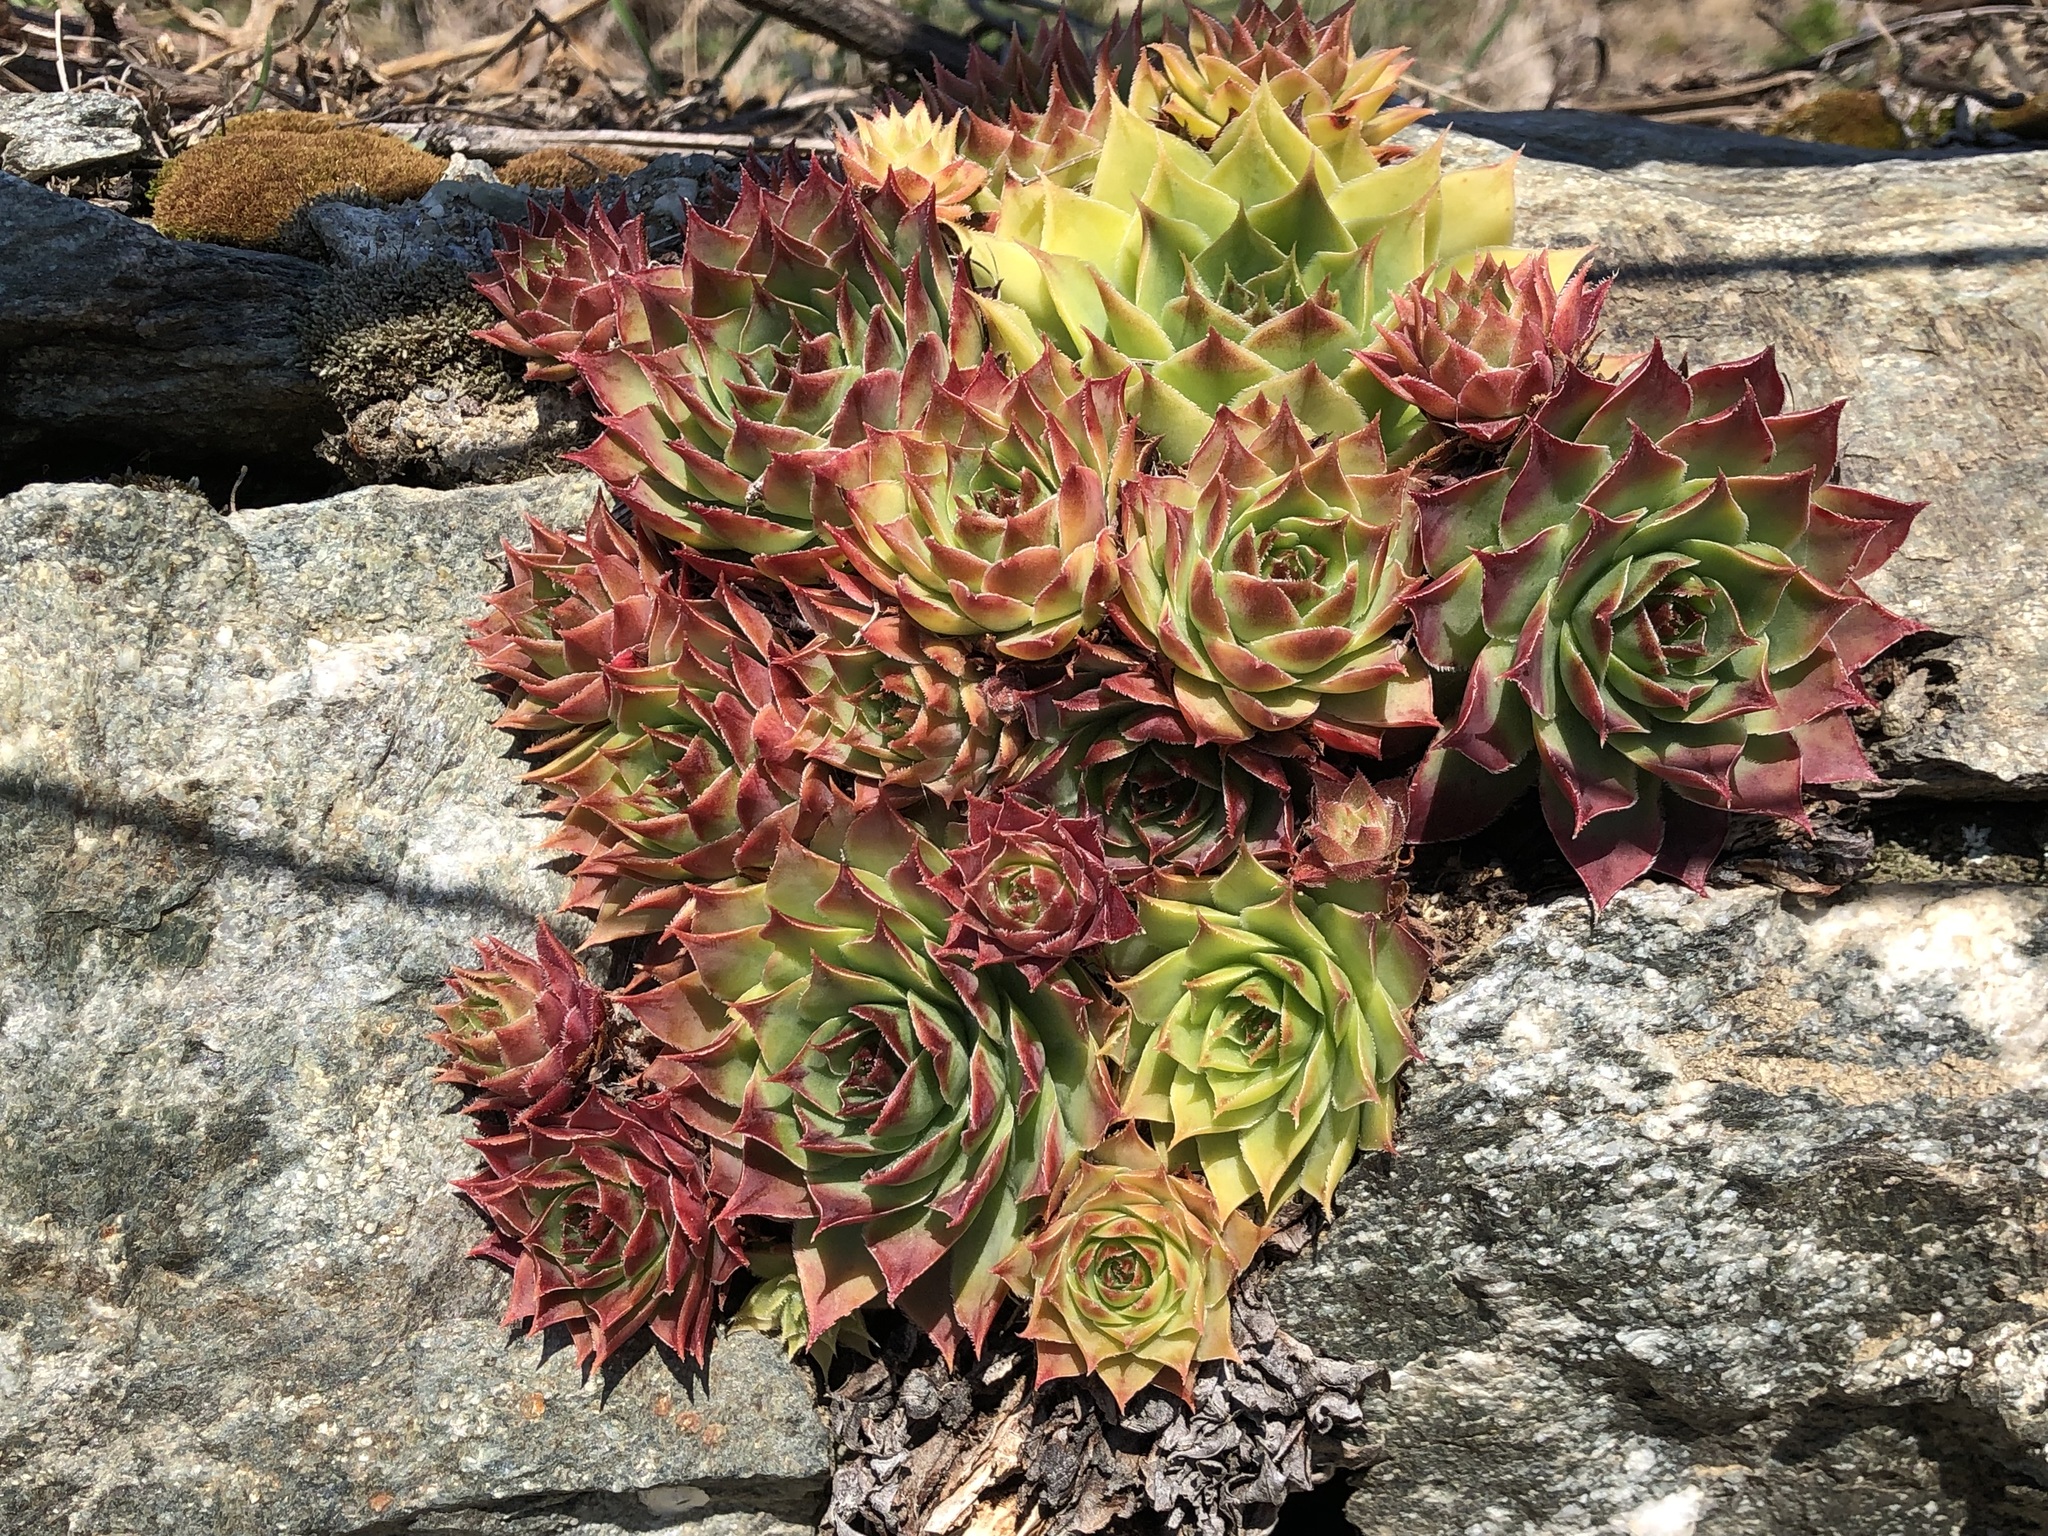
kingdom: Plantae
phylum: Tracheophyta
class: Magnoliopsida
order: Saxifragales
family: Crassulaceae
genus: Sempervivum
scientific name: Sempervivum tectorum
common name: House-leek
